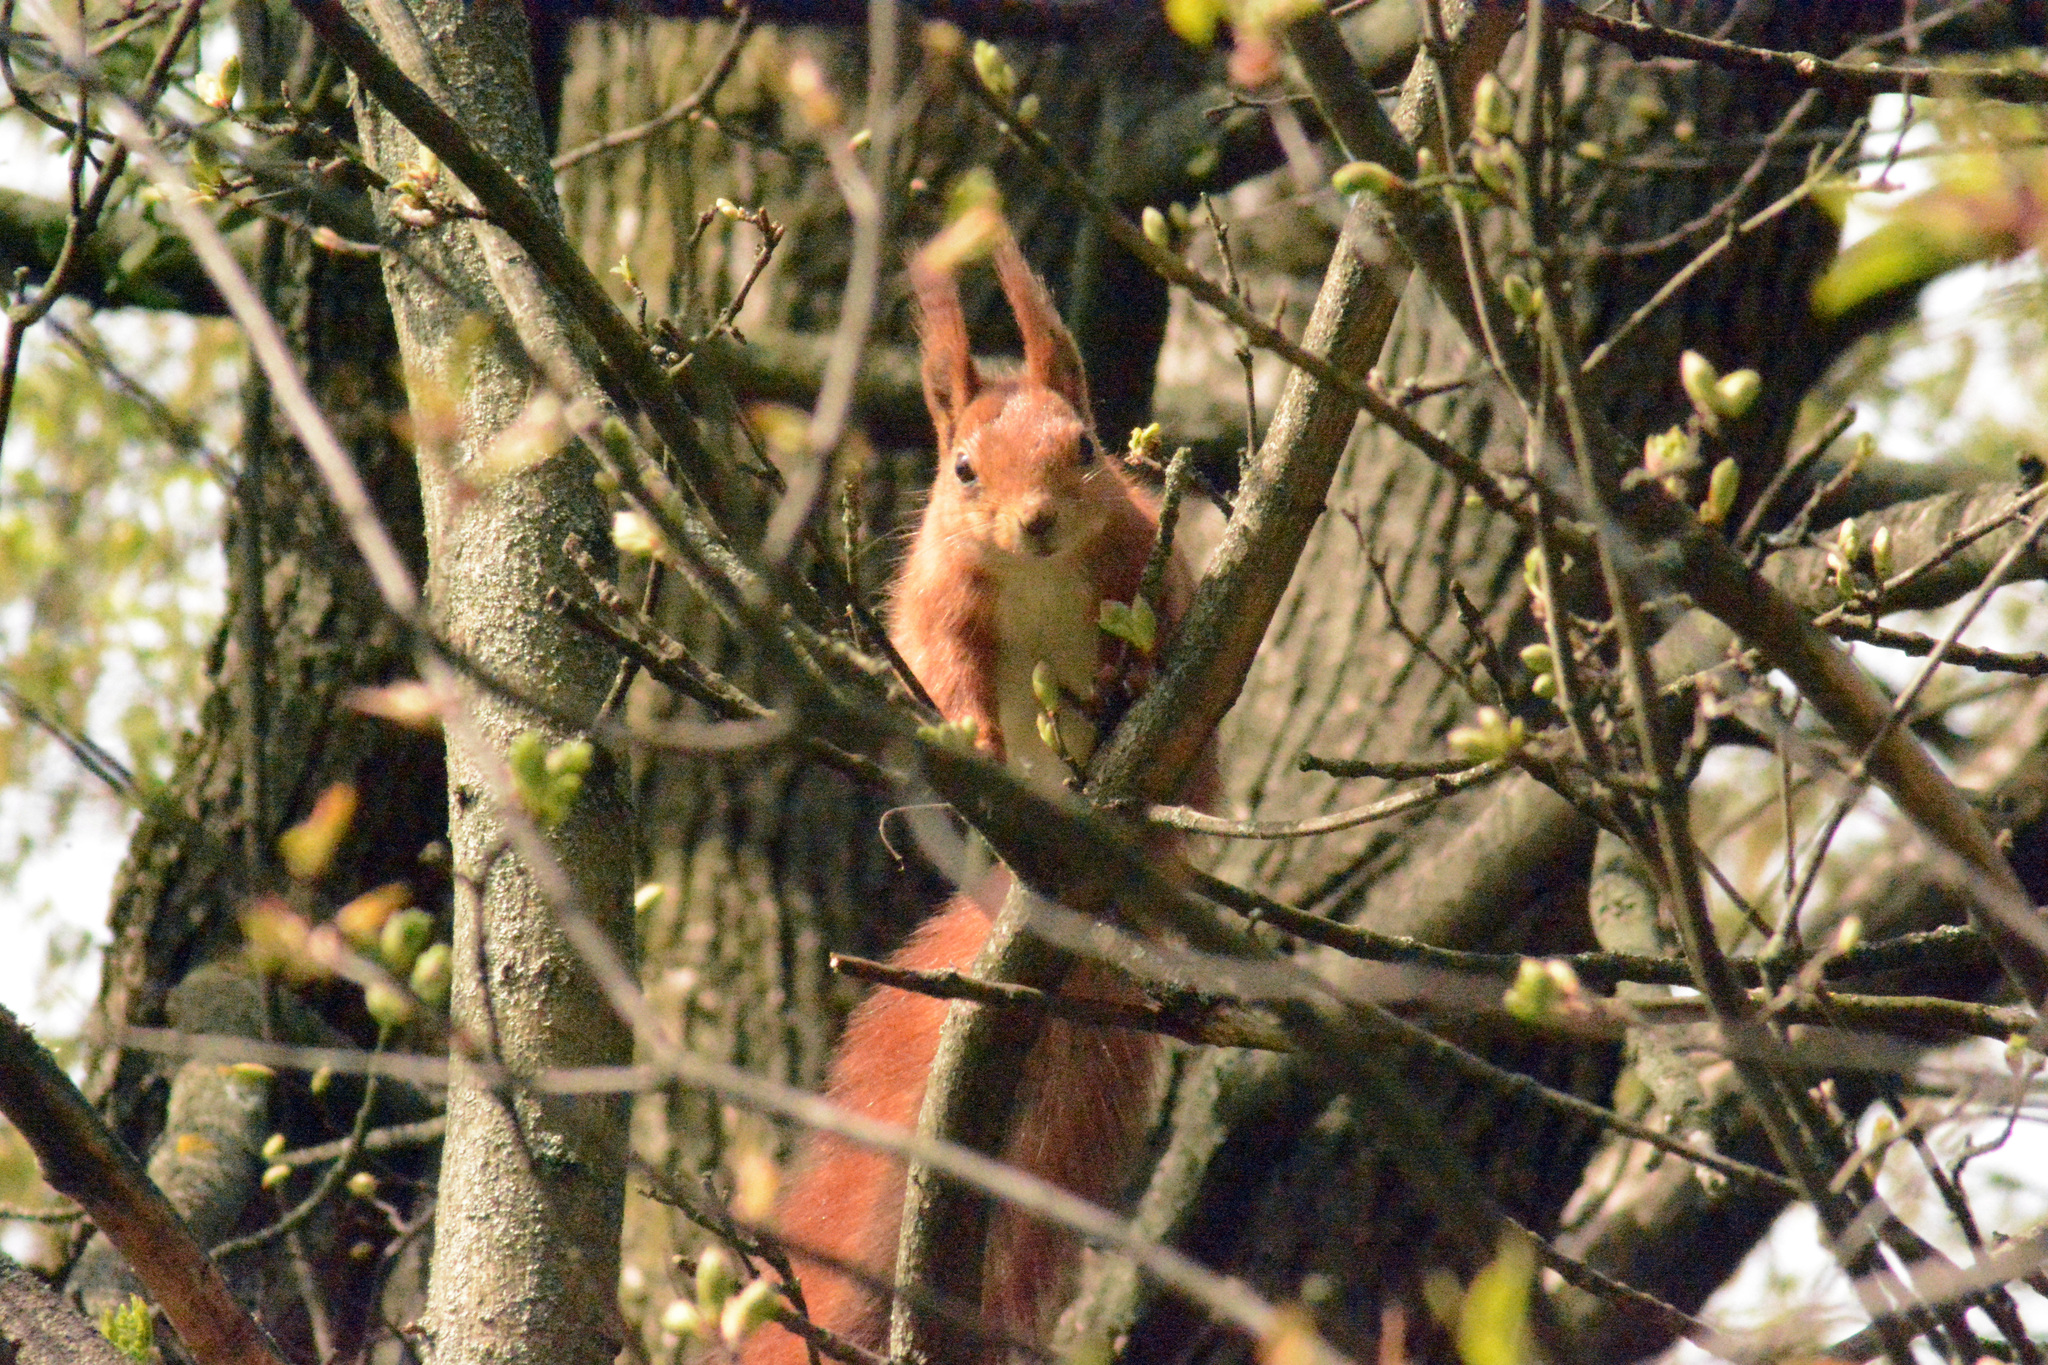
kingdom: Animalia
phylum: Chordata
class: Mammalia
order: Rodentia
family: Sciuridae
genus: Sciurus
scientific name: Sciurus vulgaris
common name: Eurasian red squirrel
